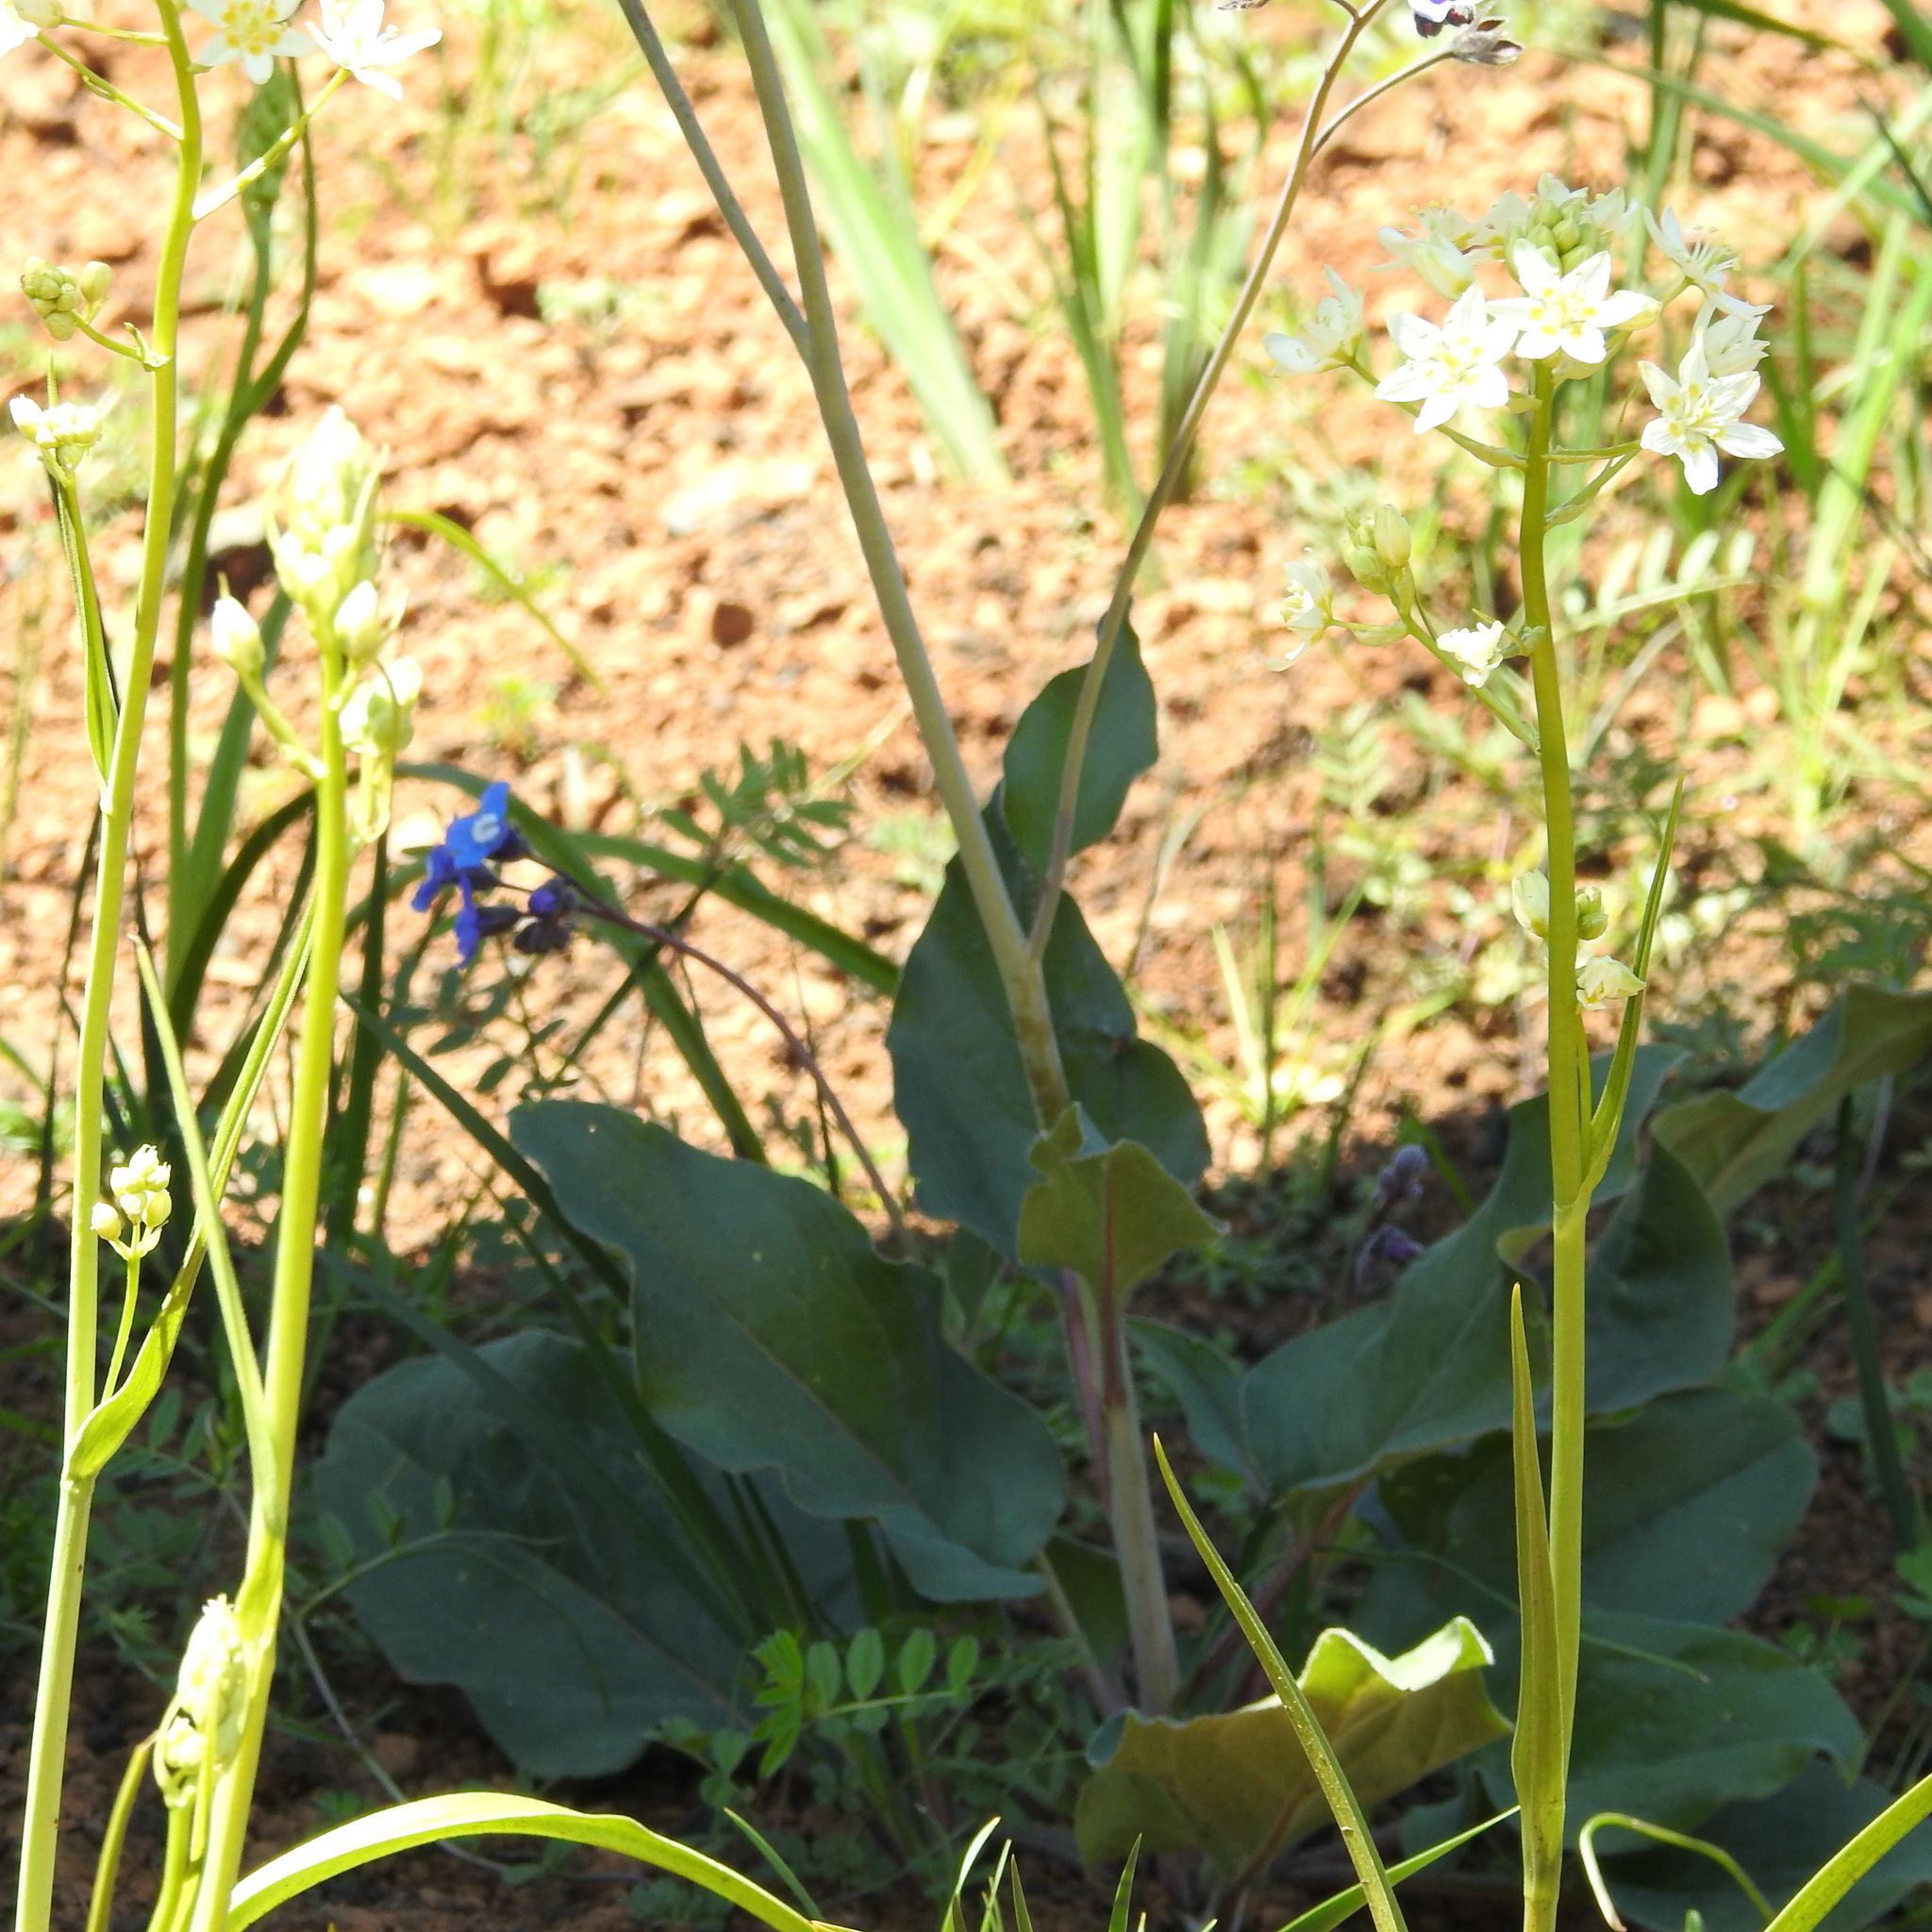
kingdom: Plantae
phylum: Tracheophyta
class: Magnoliopsida
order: Boraginales
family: Boraginaceae
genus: Adelinia
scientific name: Adelinia grande
